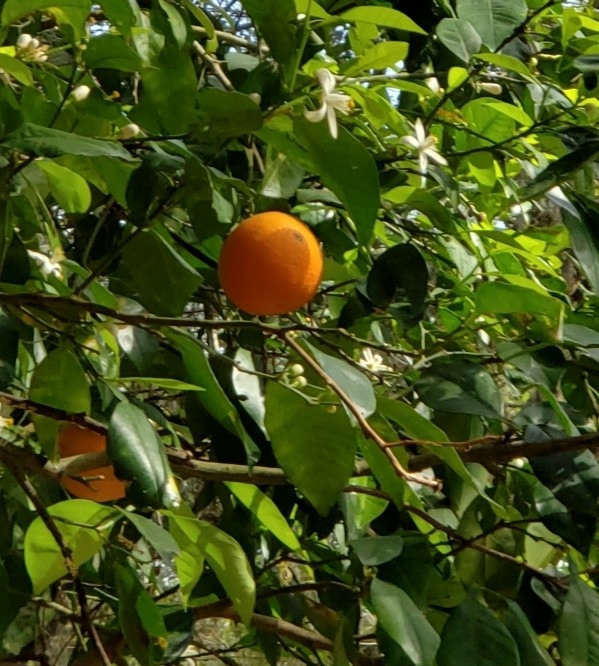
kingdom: Plantae
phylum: Tracheophyta
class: Magnoliopsida
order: Sapindales
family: Rutaceae
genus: Citrus
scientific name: Citrus aurantium
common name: Sour orange
